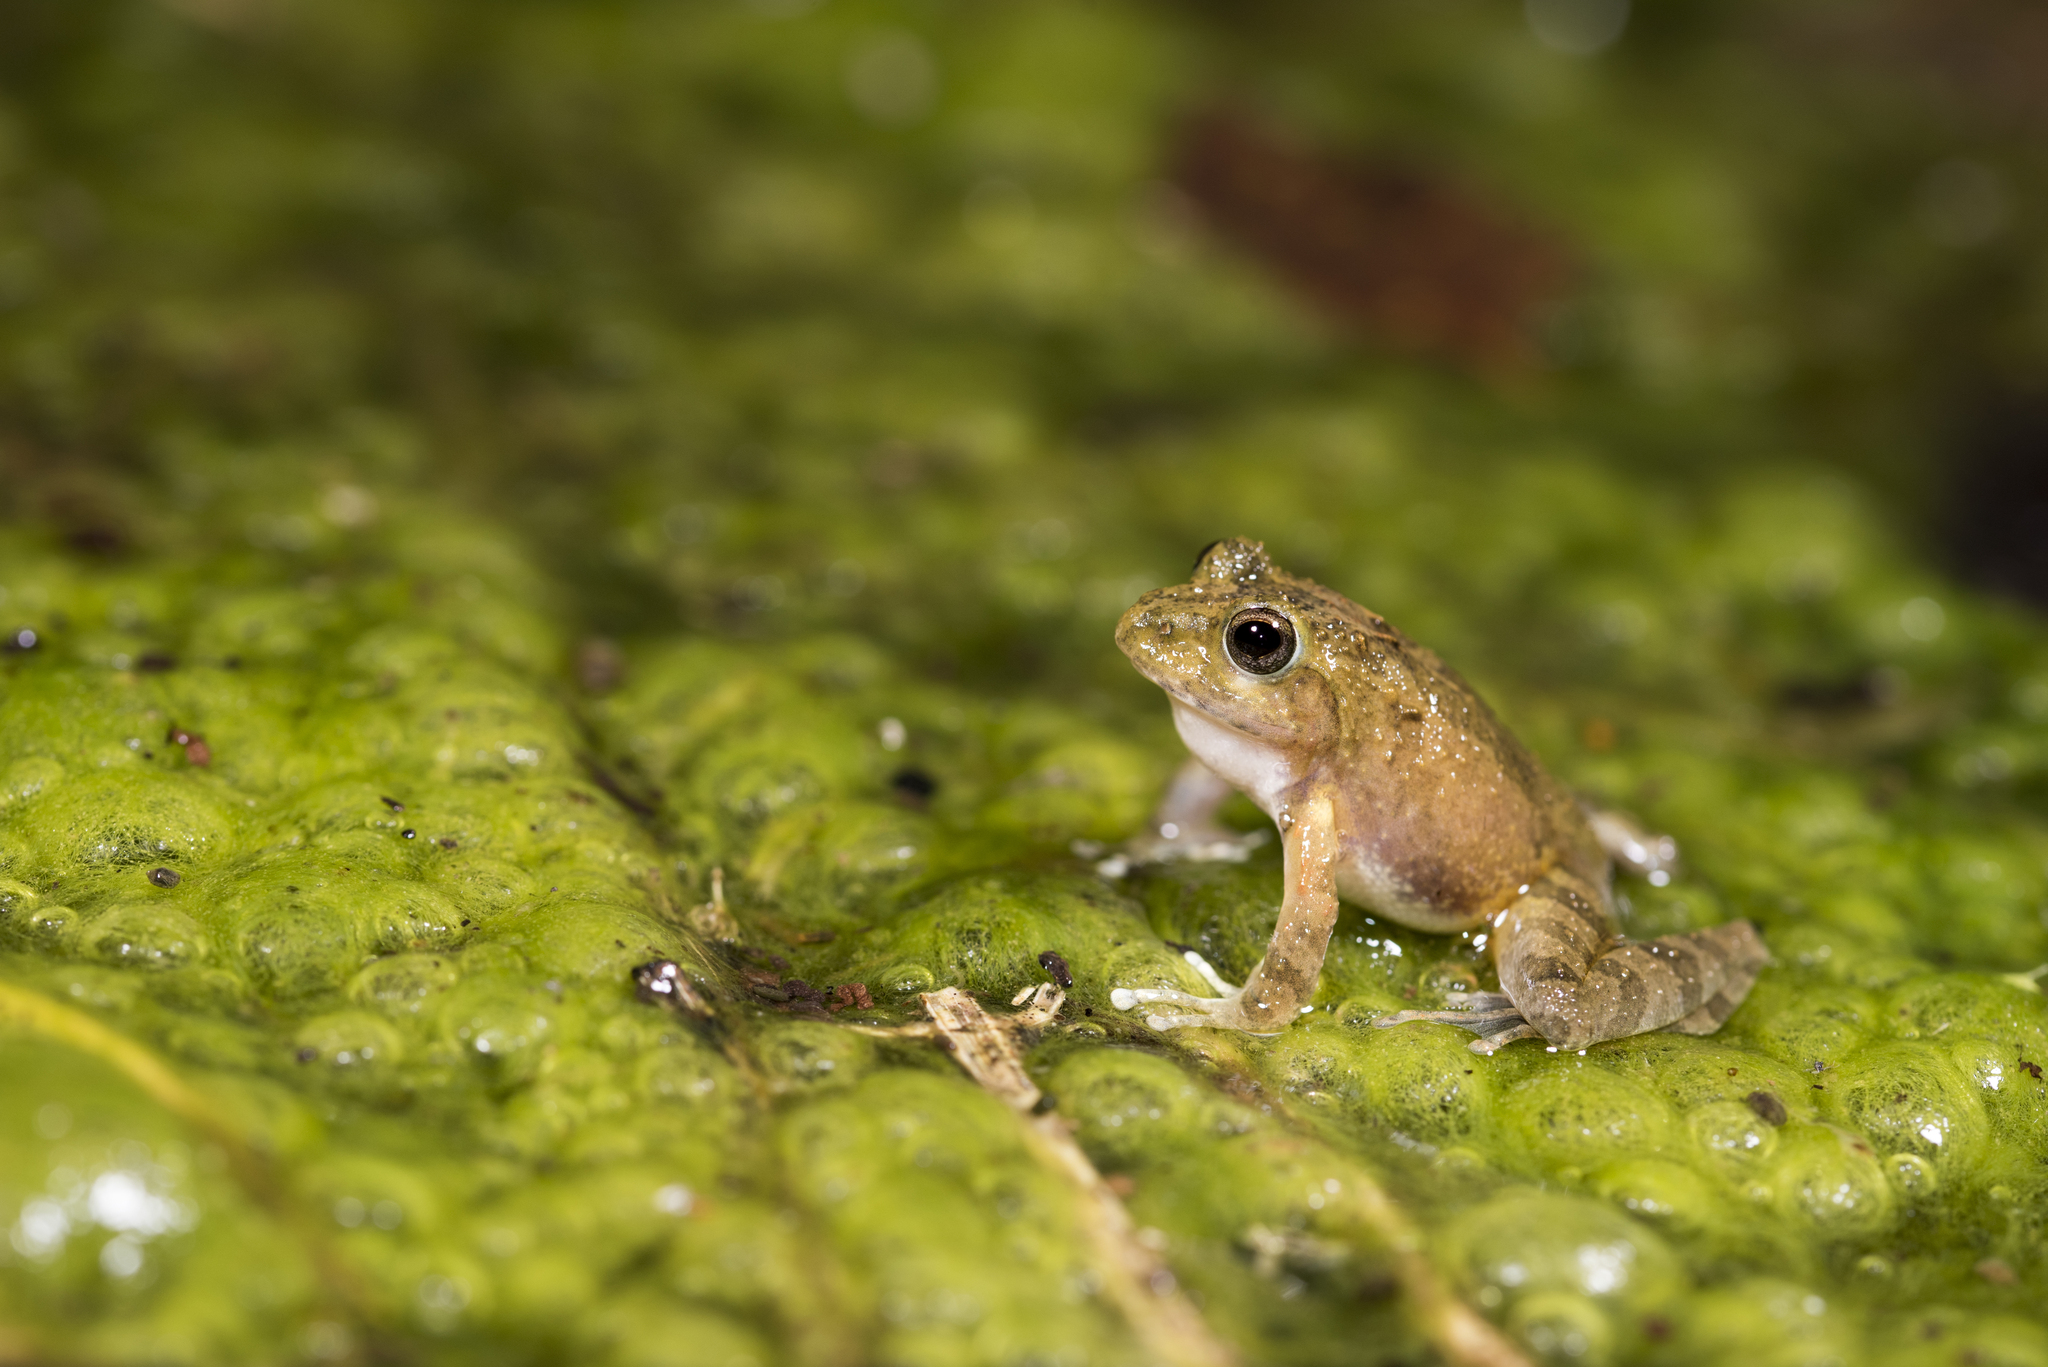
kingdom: Animalia
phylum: Chordata
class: Amphibia
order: Anura
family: Rhacophoridae
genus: Buergeria
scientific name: Buergeria choui
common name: Yaeyama kajika frog
